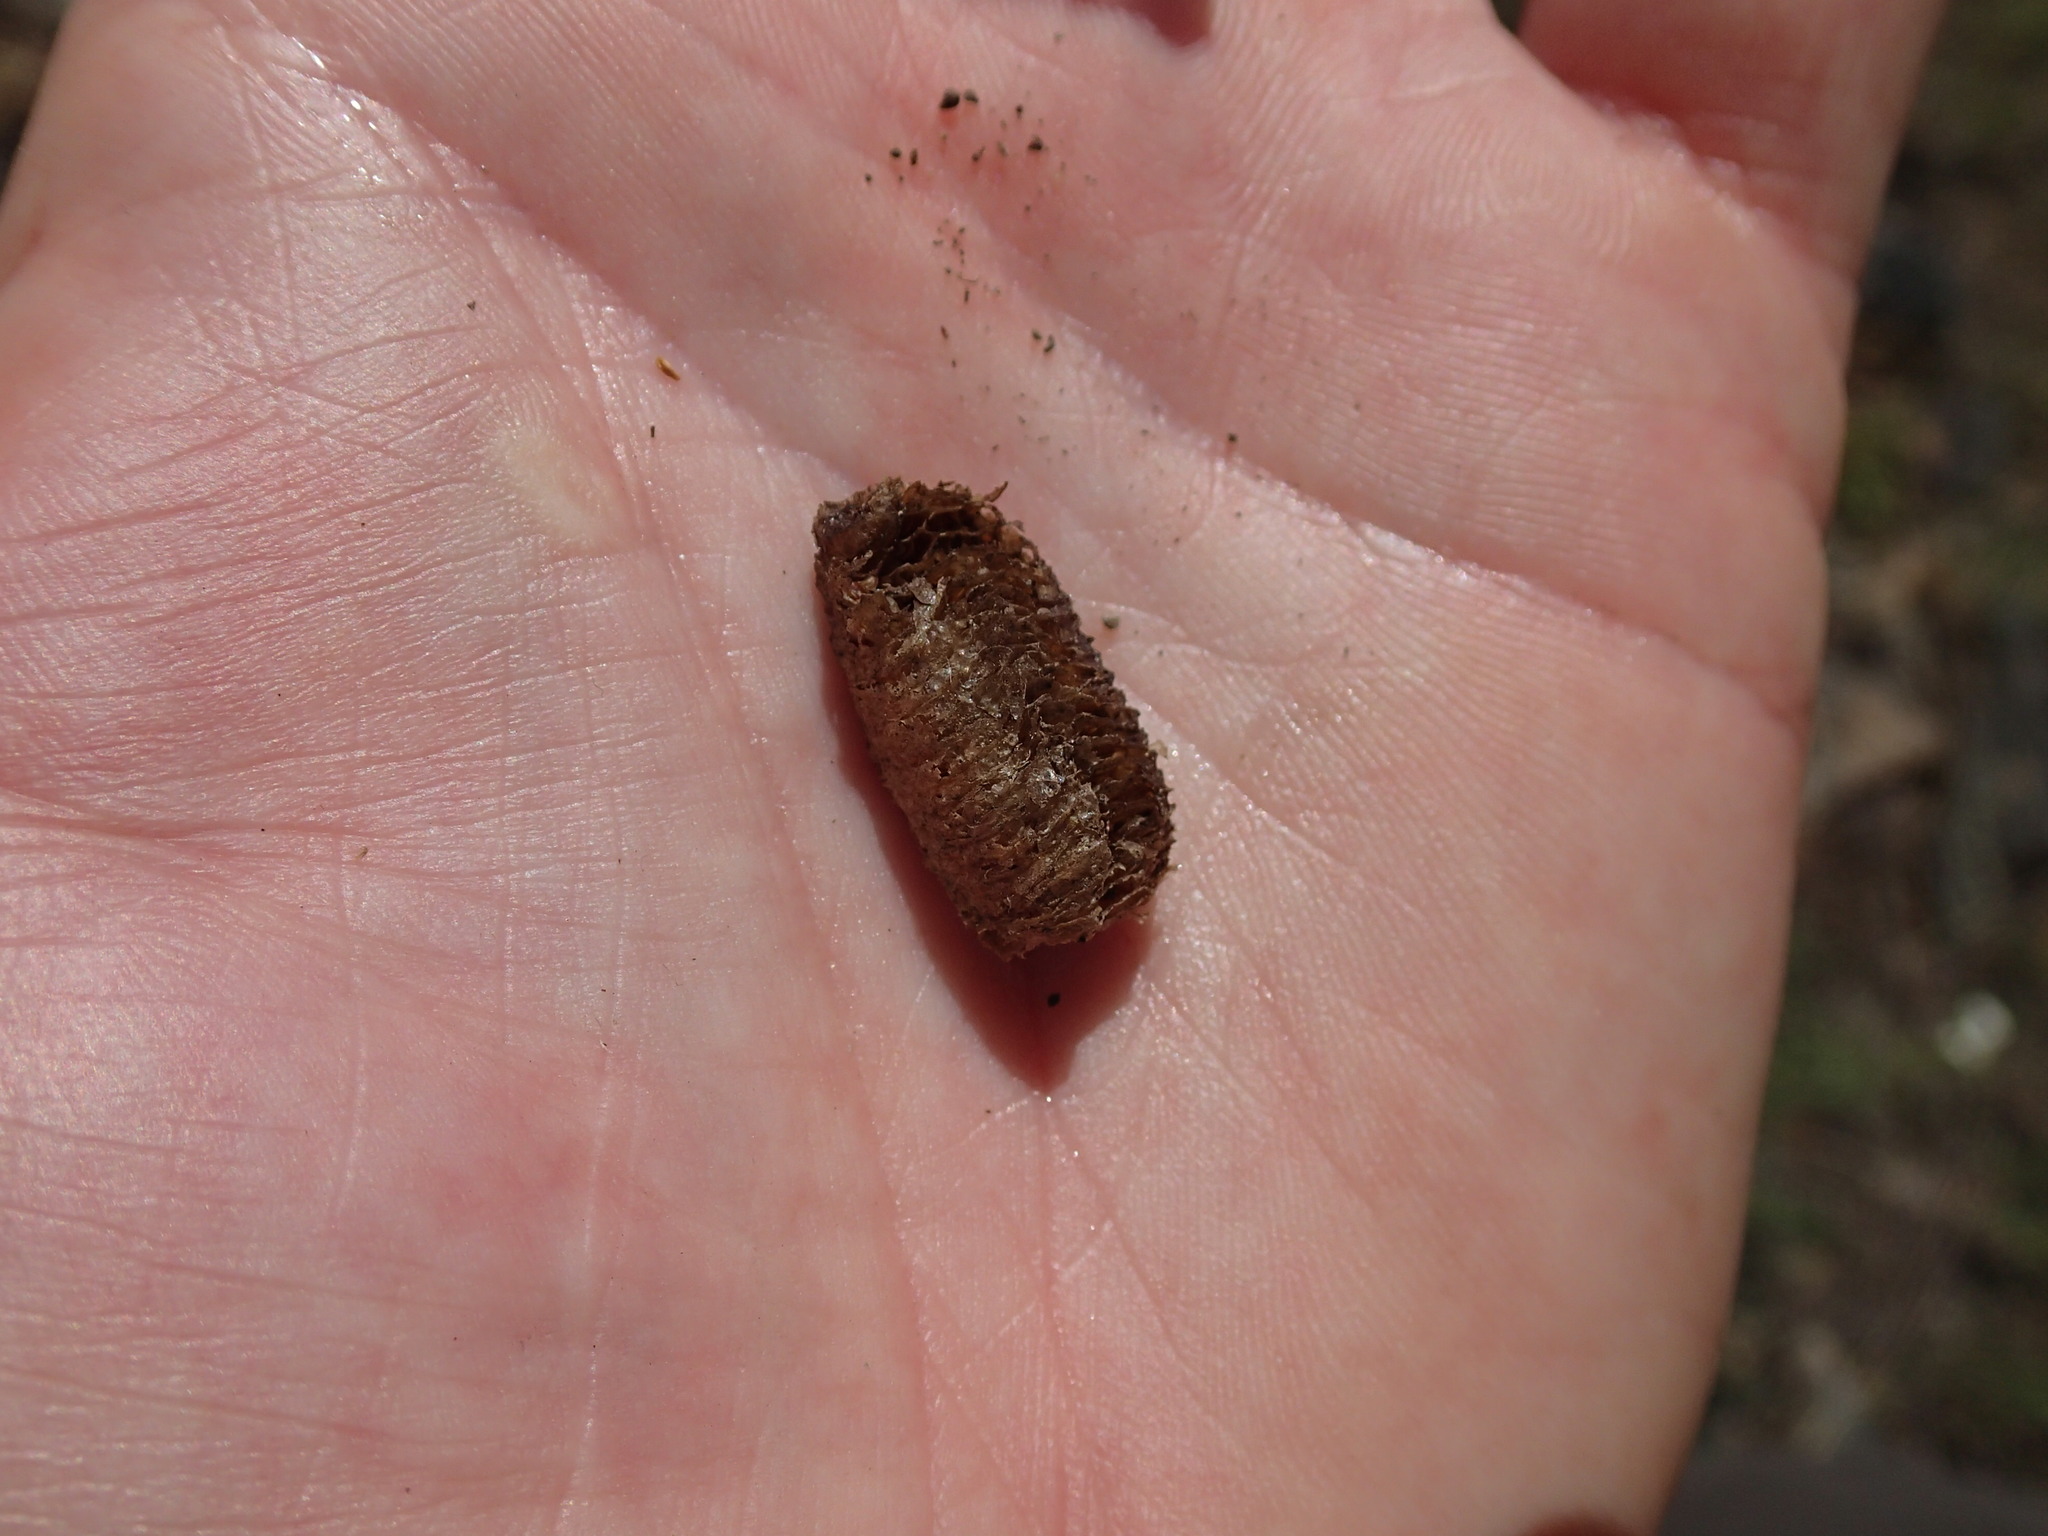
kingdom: Animalia
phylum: Arthropoda
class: Insecta
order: Mantodea
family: Mantidae
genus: Mantis
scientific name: Mantis religiosa
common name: Praying mantis
